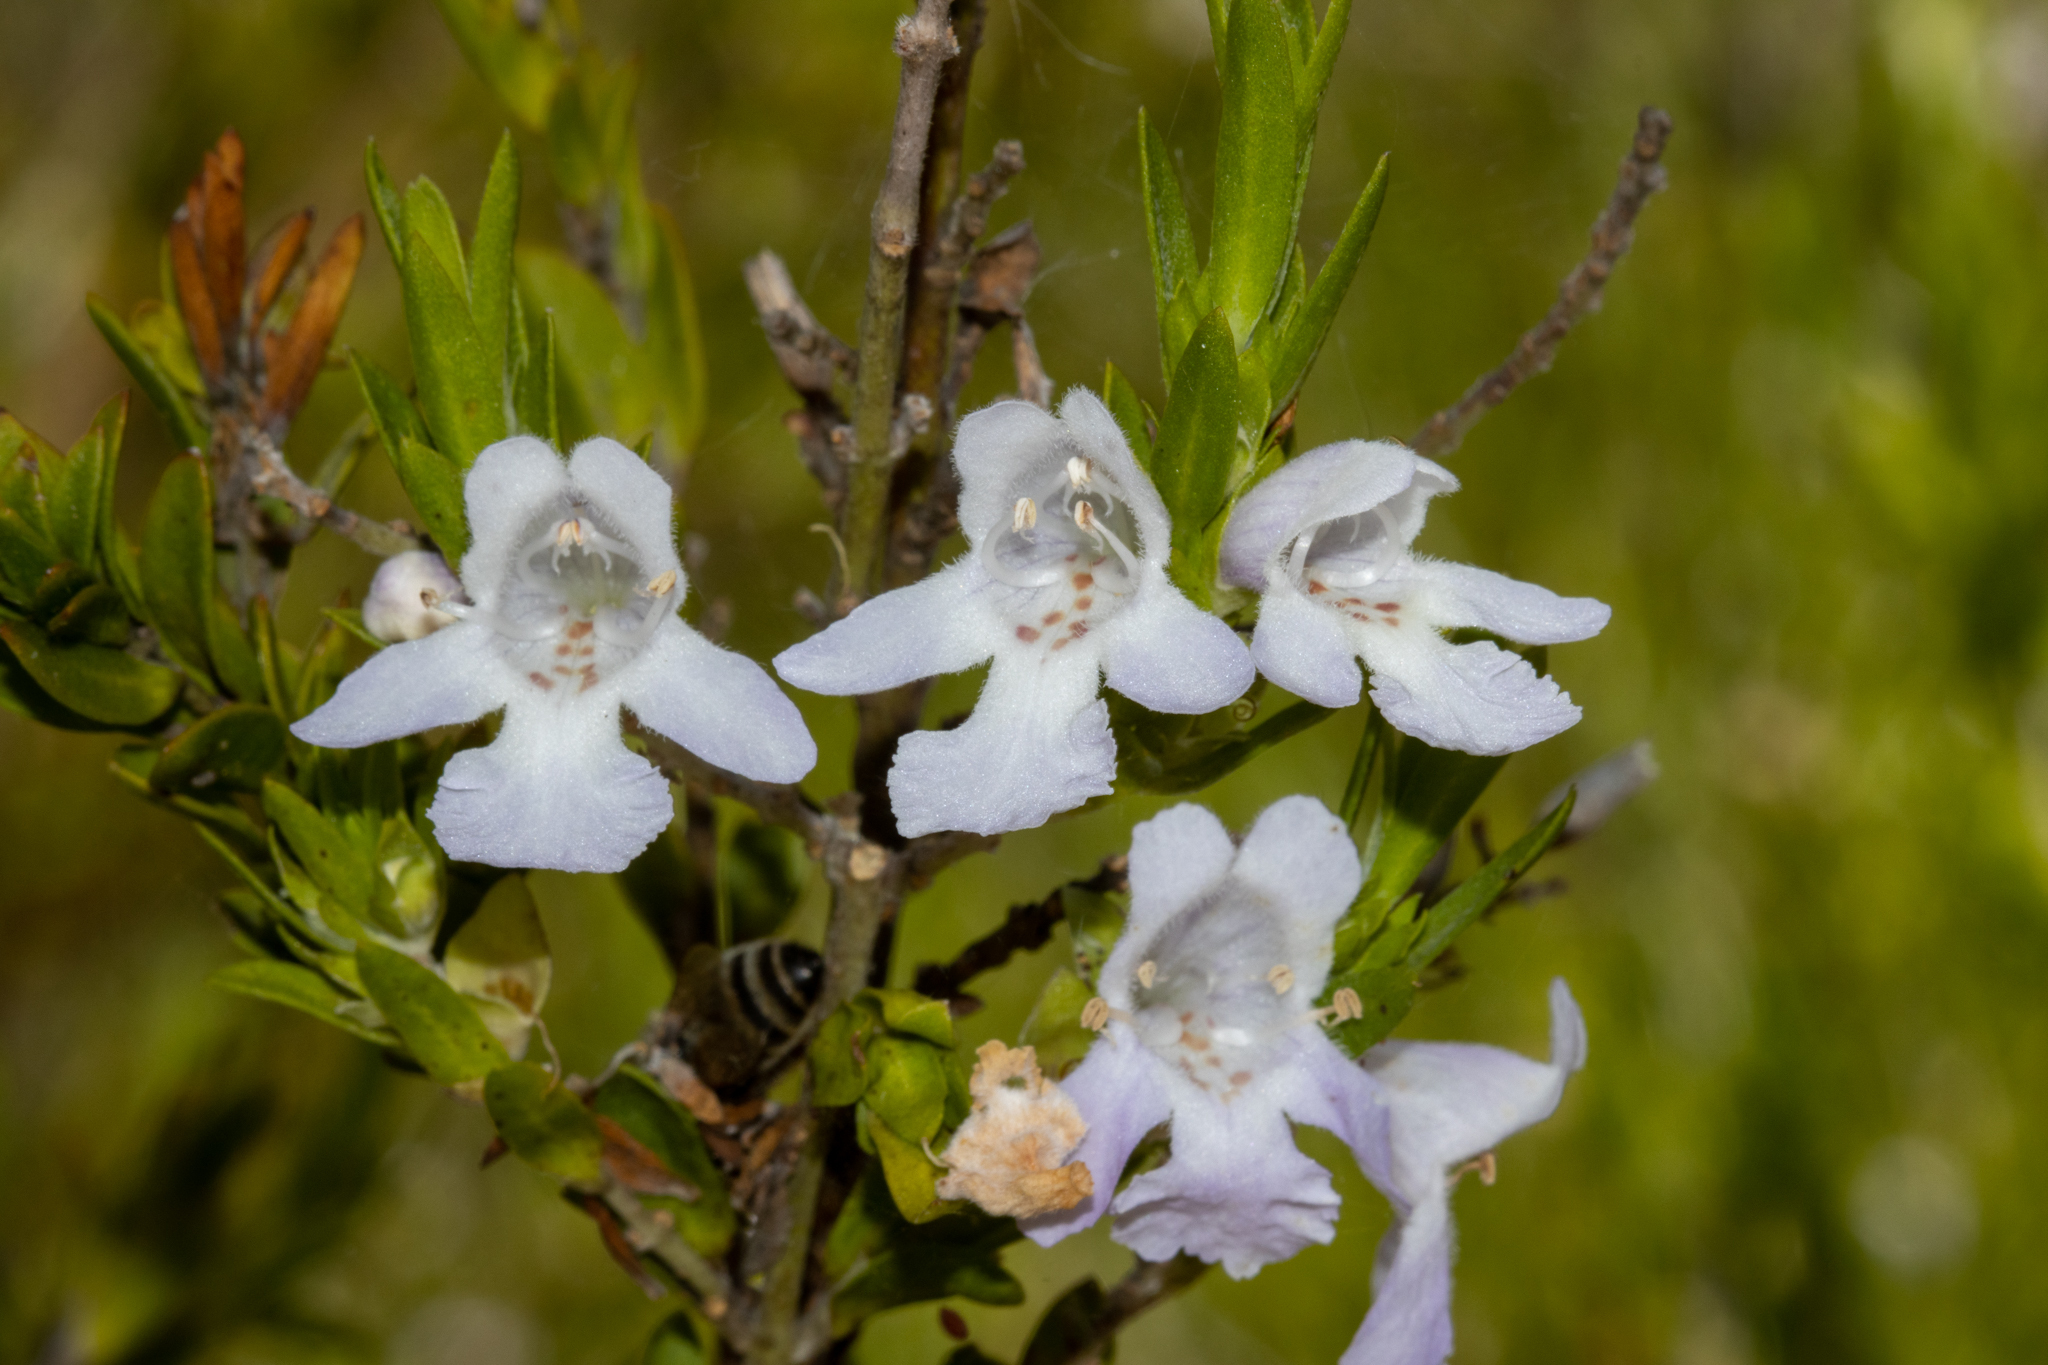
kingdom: Plantae
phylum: Tracheophyta
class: Magnoliopsida
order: Lamiales
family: Lamiaceae
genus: Prostanthera
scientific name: Prostanthera behriana
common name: Downy mintbush
